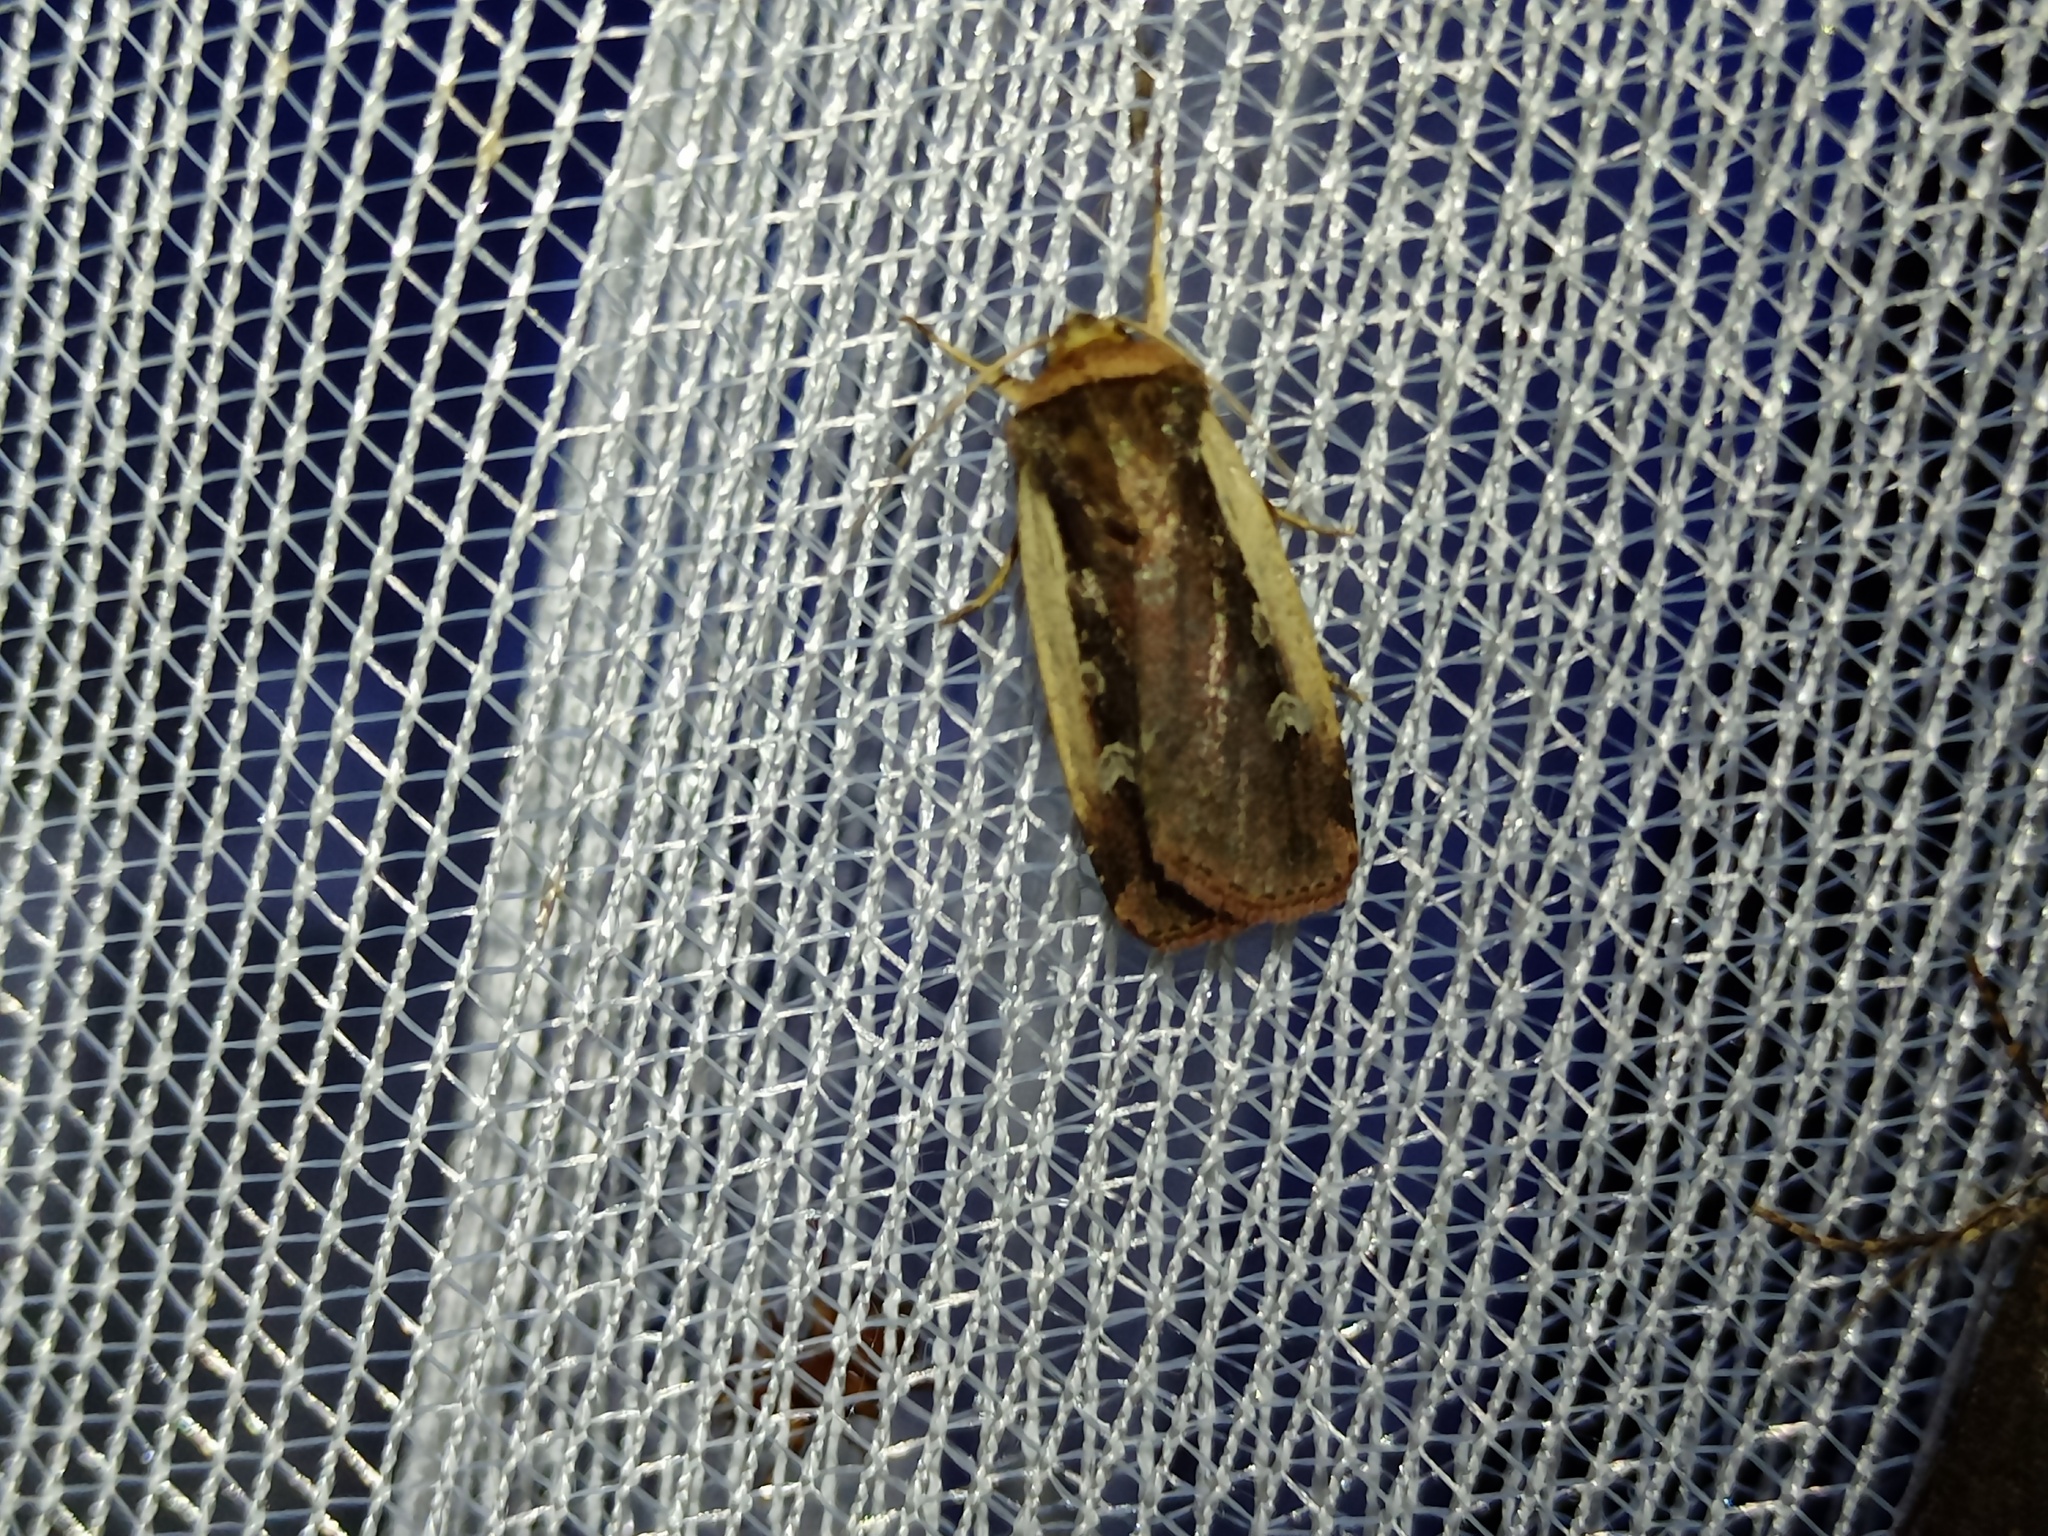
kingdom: Animalia
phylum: Arthropoda
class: Insecta
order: Lepidoptera
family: Noctuidae
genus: Ochropleura
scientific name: Ochropleura plecta
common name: Flame shoulder
